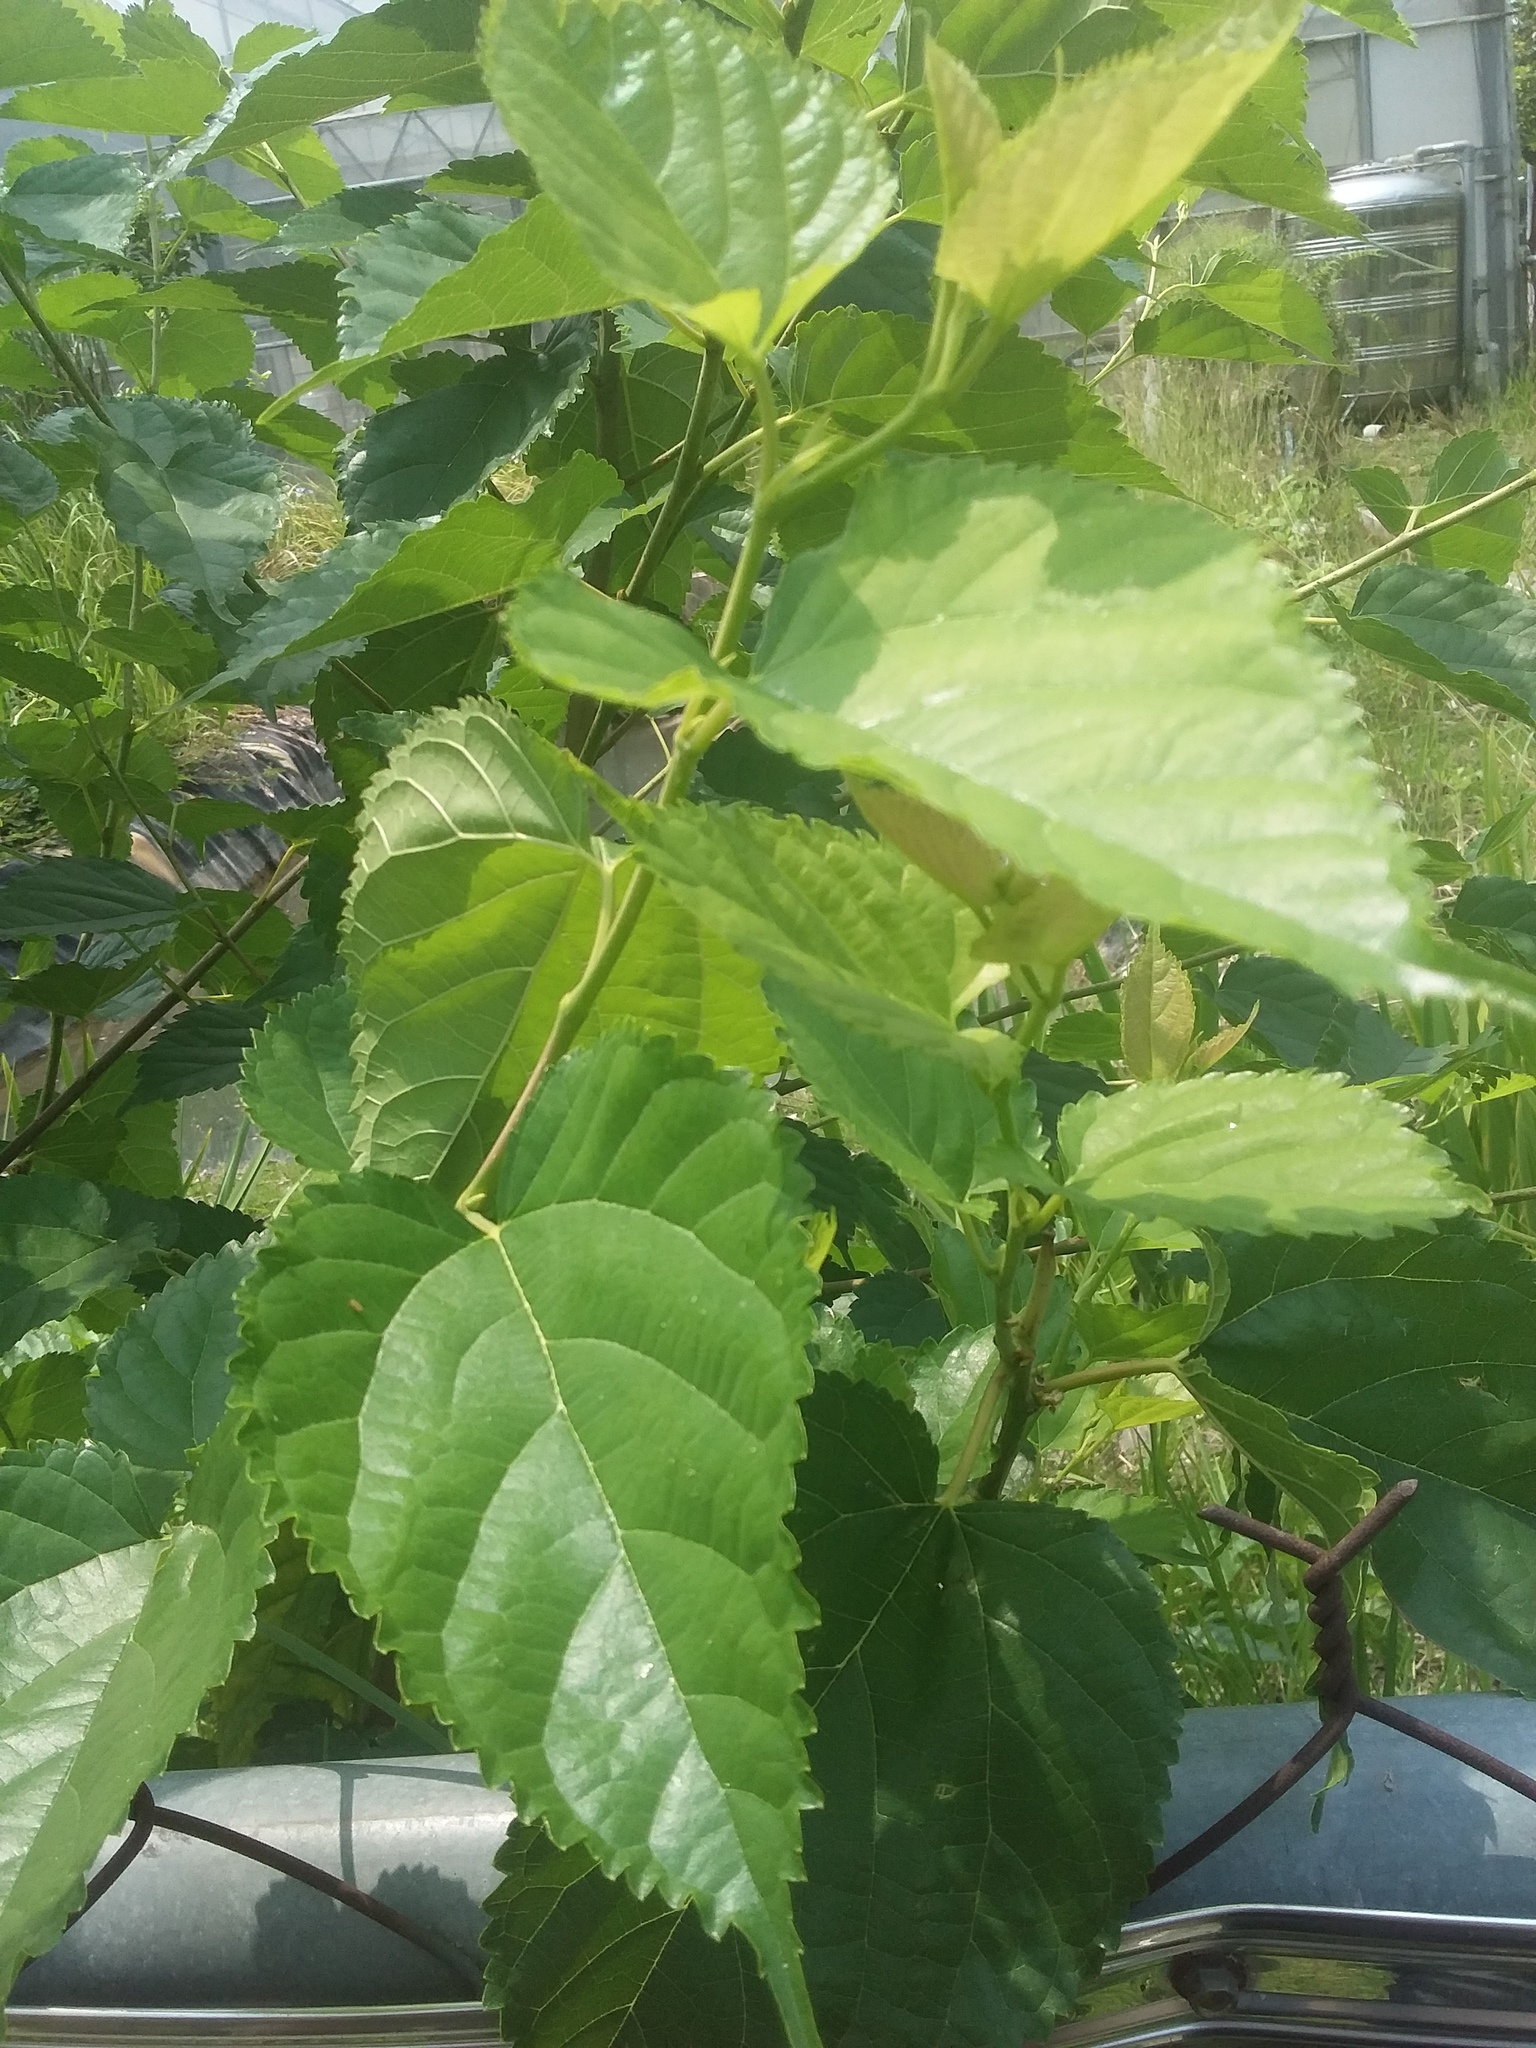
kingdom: Plantae
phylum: Tracheophyta
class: Magnoliopsida
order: Rosales
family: Moraceae
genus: Morus
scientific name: Morus alba
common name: White mulberry
